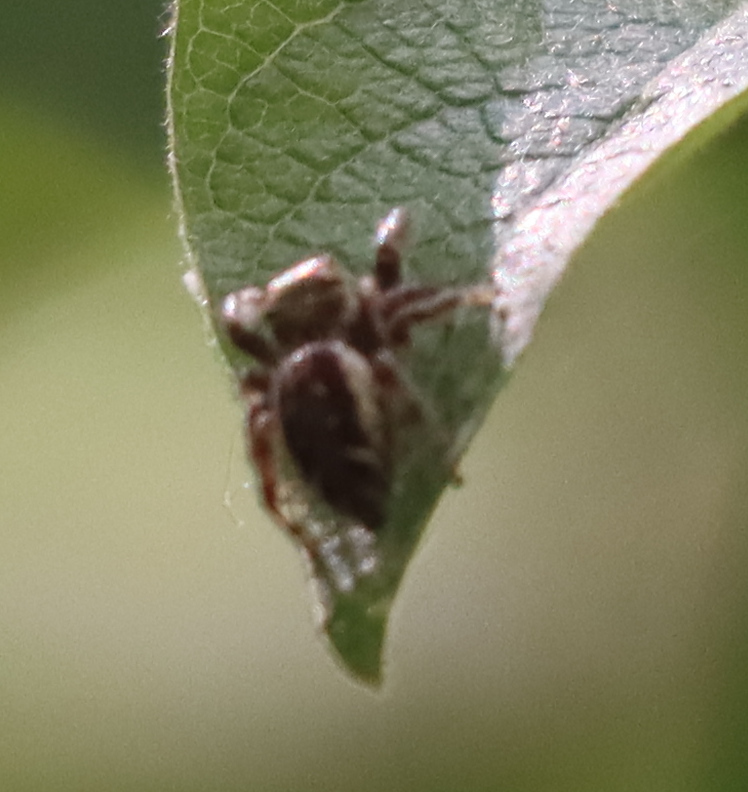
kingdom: Animalia
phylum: Arthropoda
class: Arachnida
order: Araneae
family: Salticidae
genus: Eris
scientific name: Eris militaris
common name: Bronze jumper
